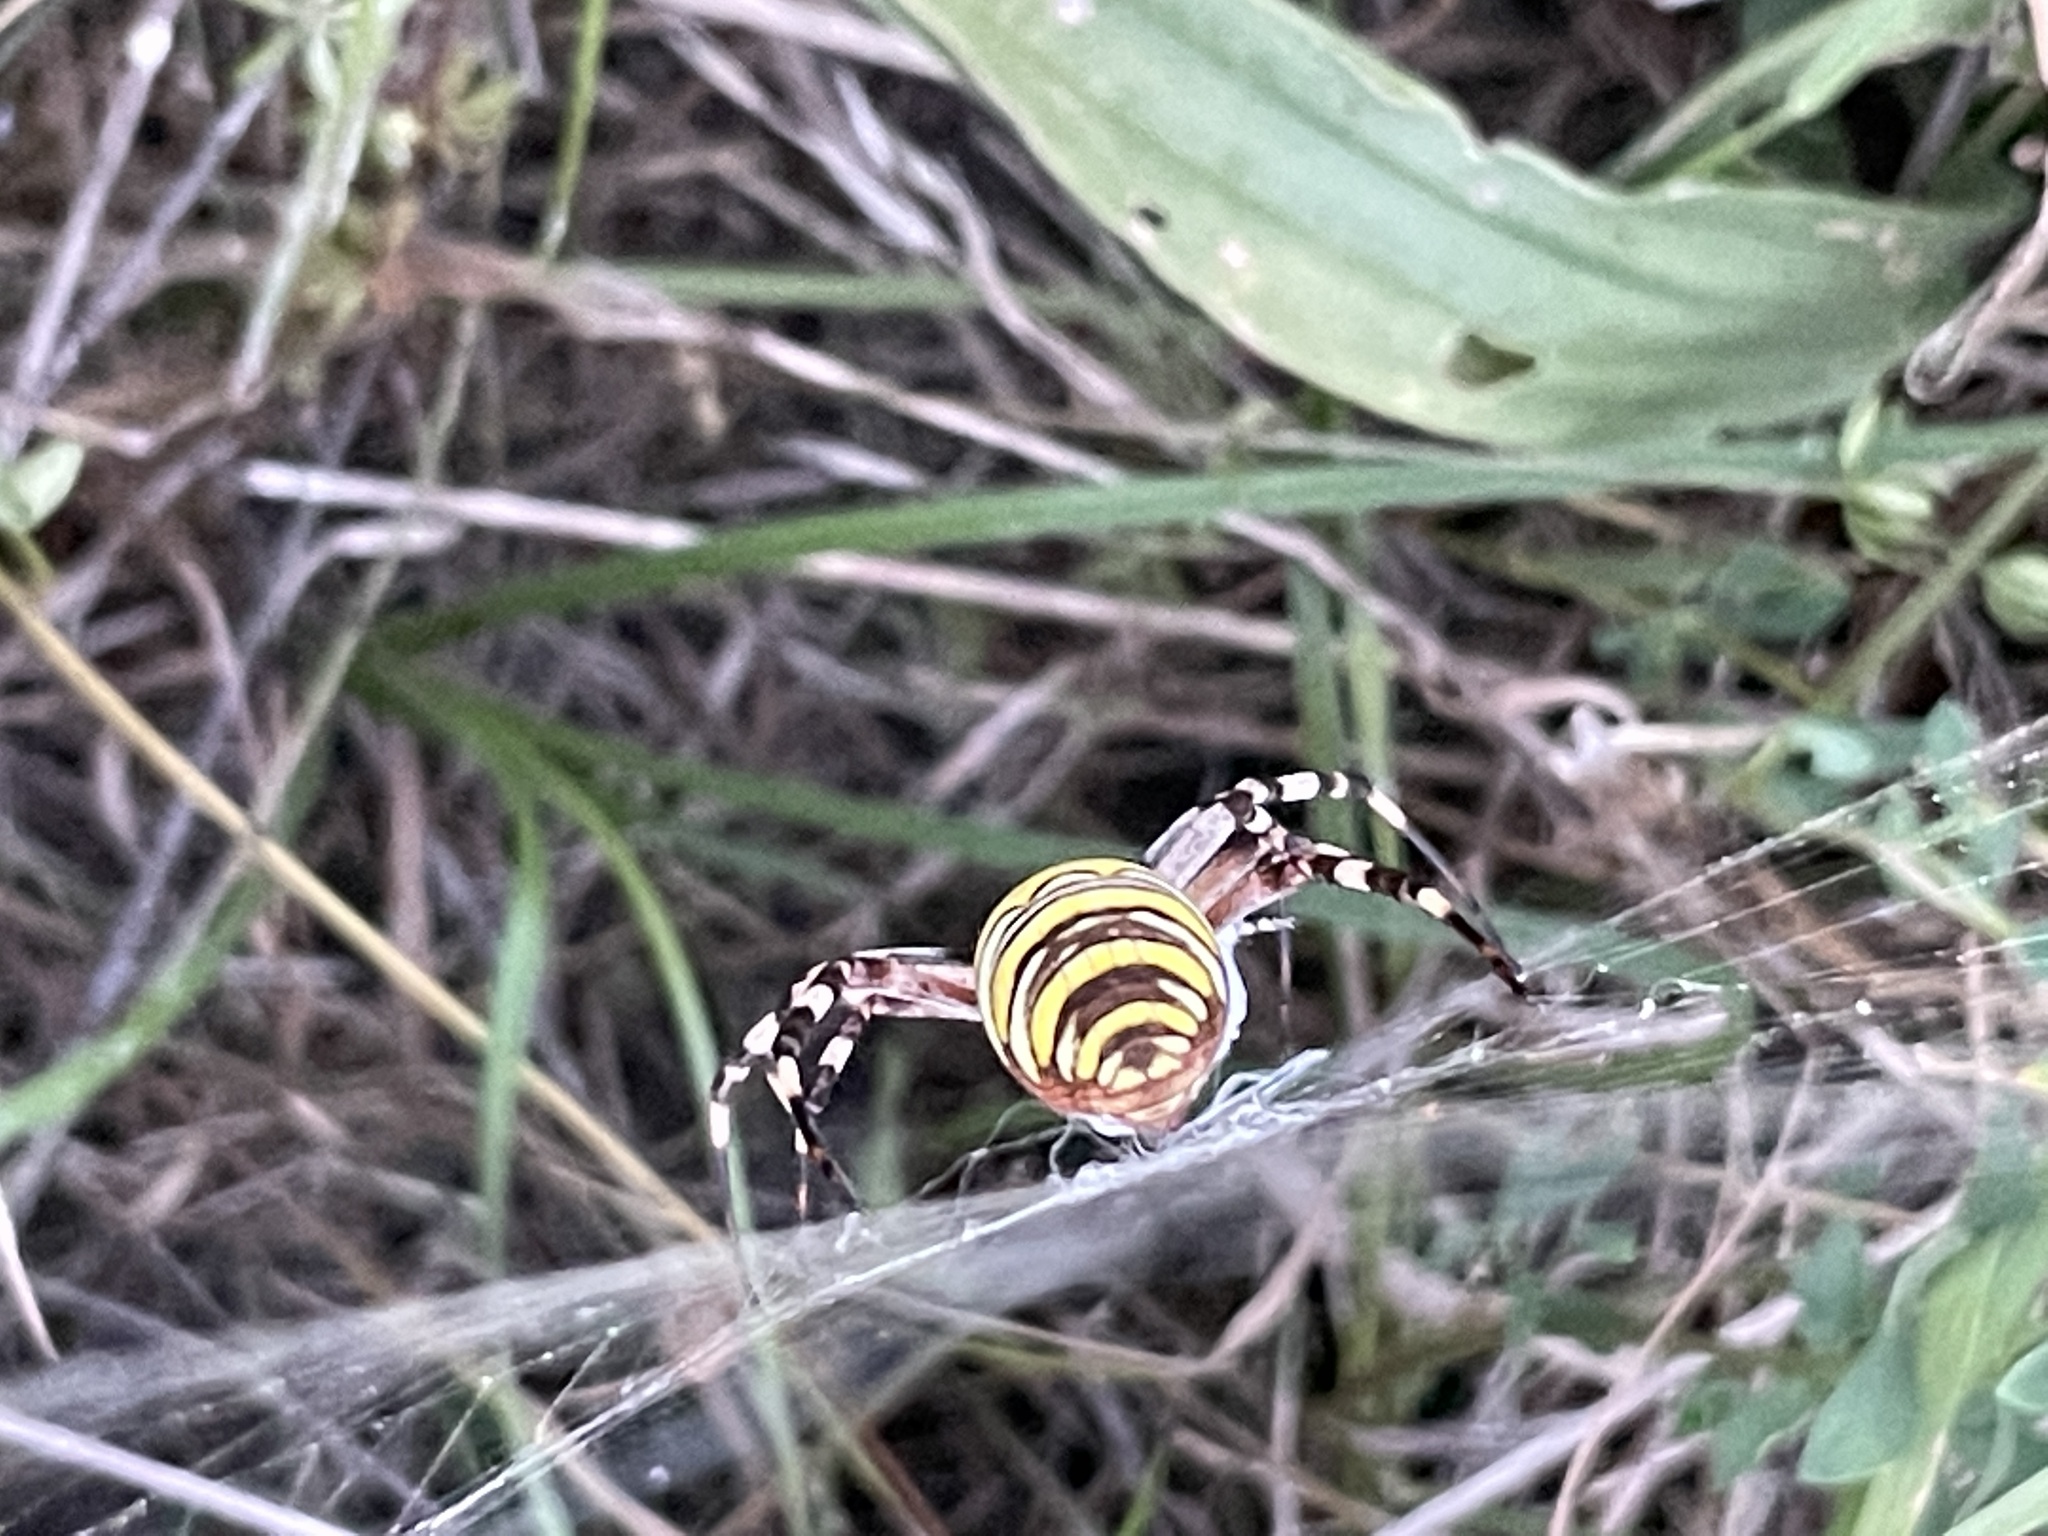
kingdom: Animalia
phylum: Arthropoda
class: Arachnida
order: Araneae
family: Araneidae
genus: Argiope
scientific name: Argiope bruennichi
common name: Wasp spider
